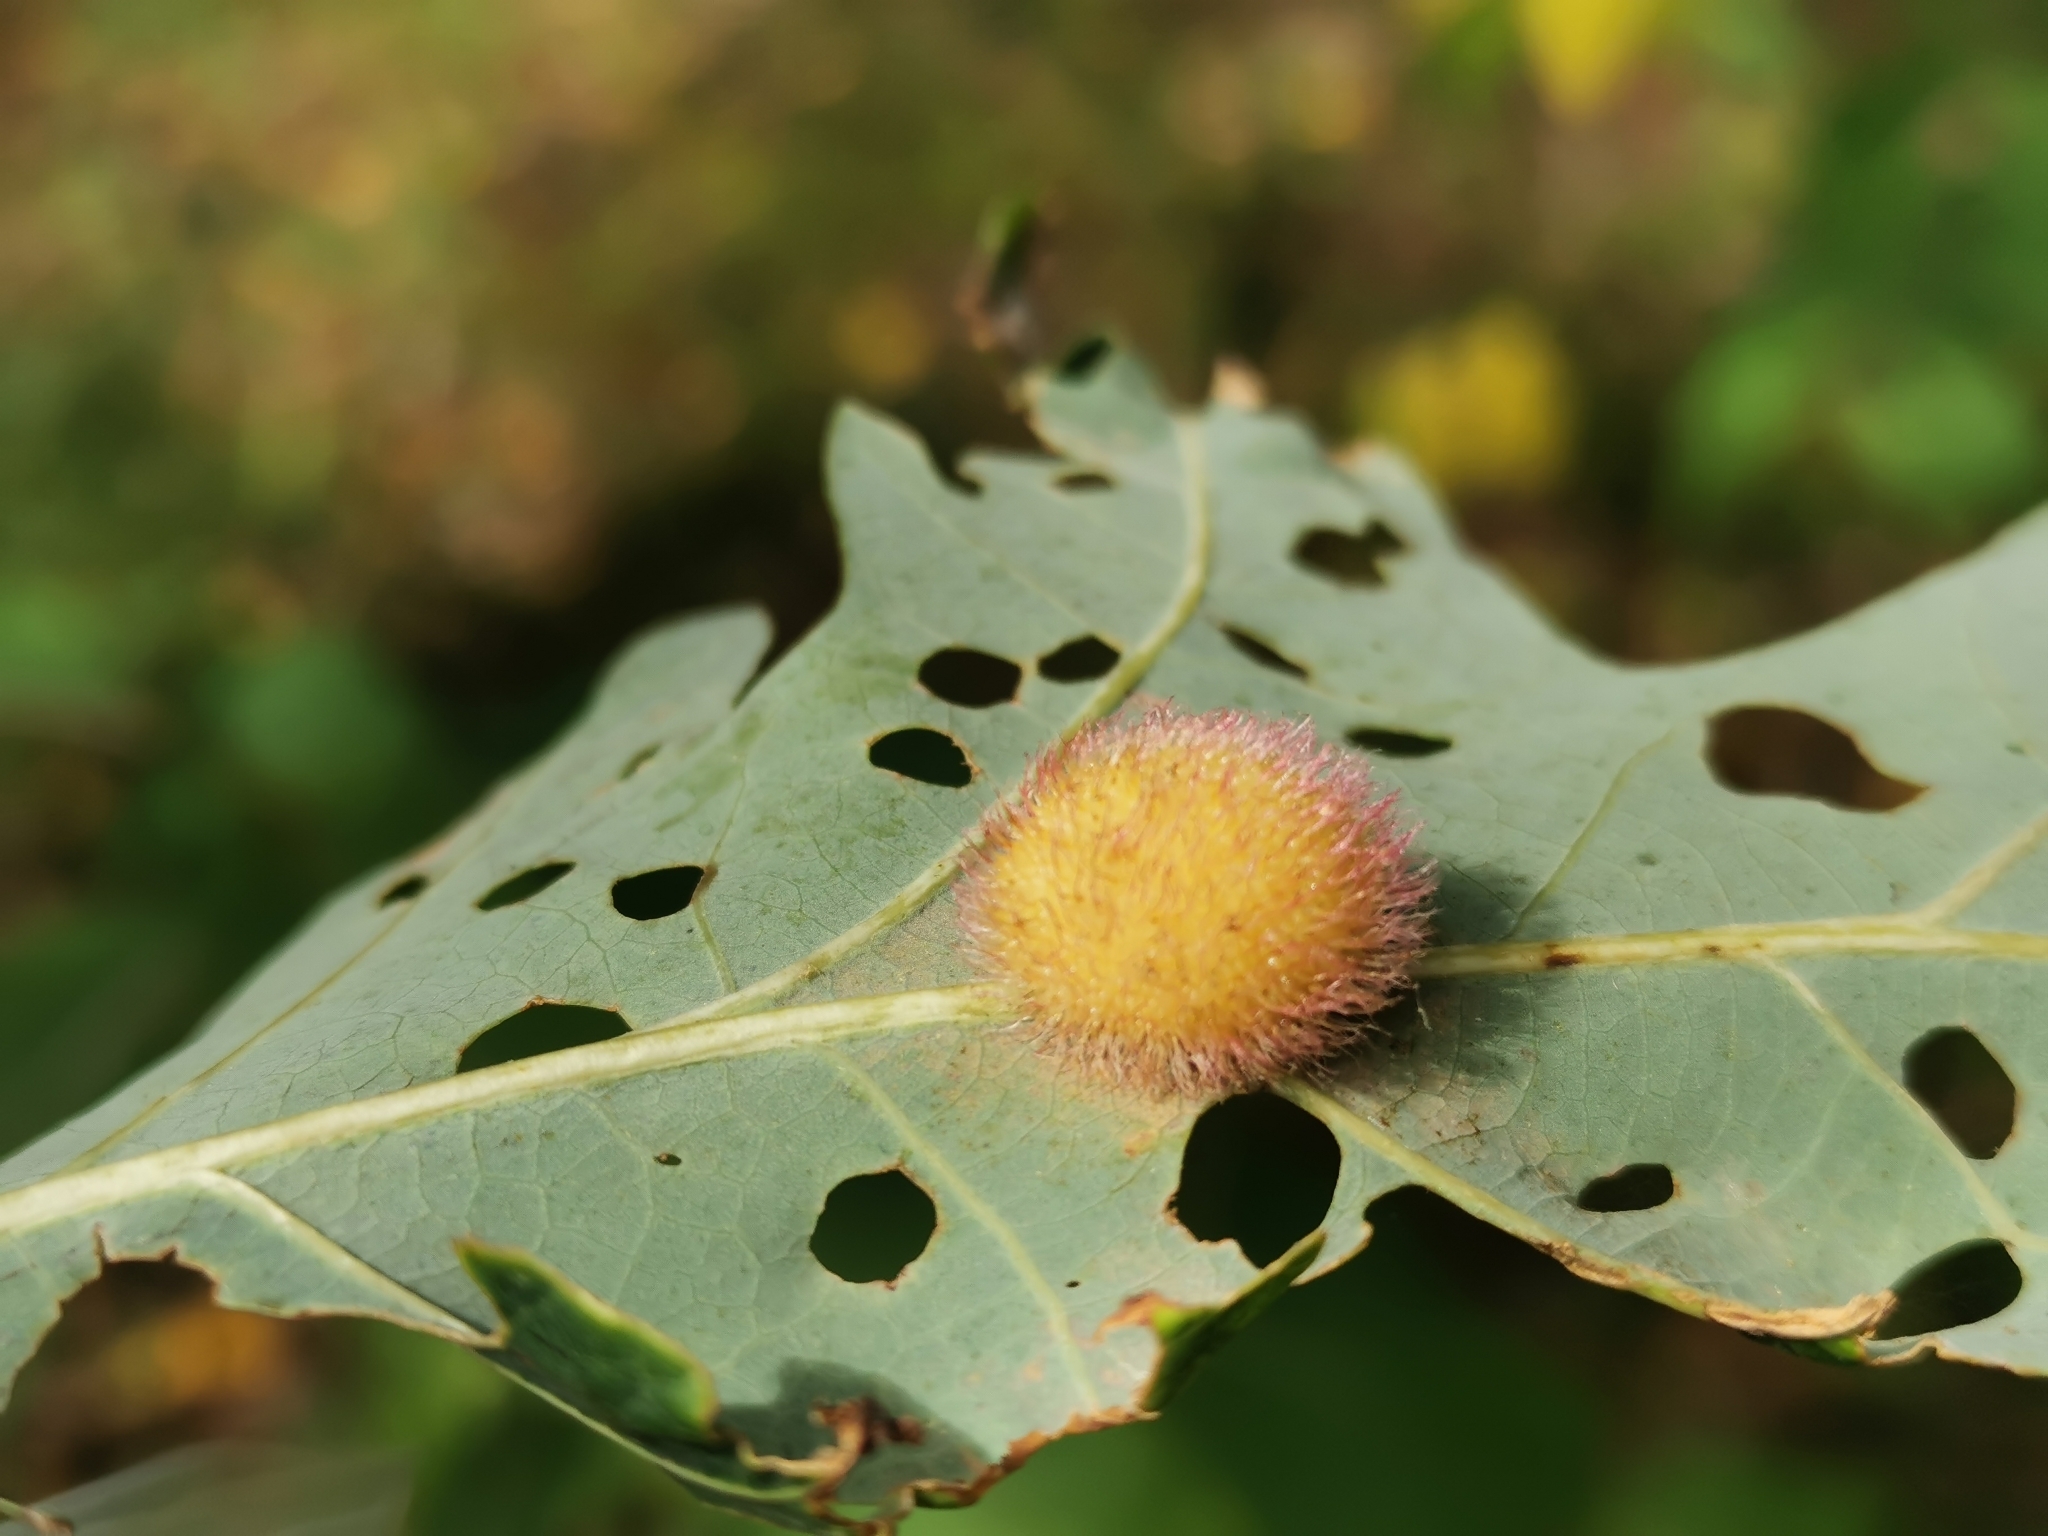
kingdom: Animalia
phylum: Arthropoda
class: Insecta
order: Hymenoptera
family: Cynipidae
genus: Acraspis
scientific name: Acraspis erinacei
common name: Hedgehog gall wasp
